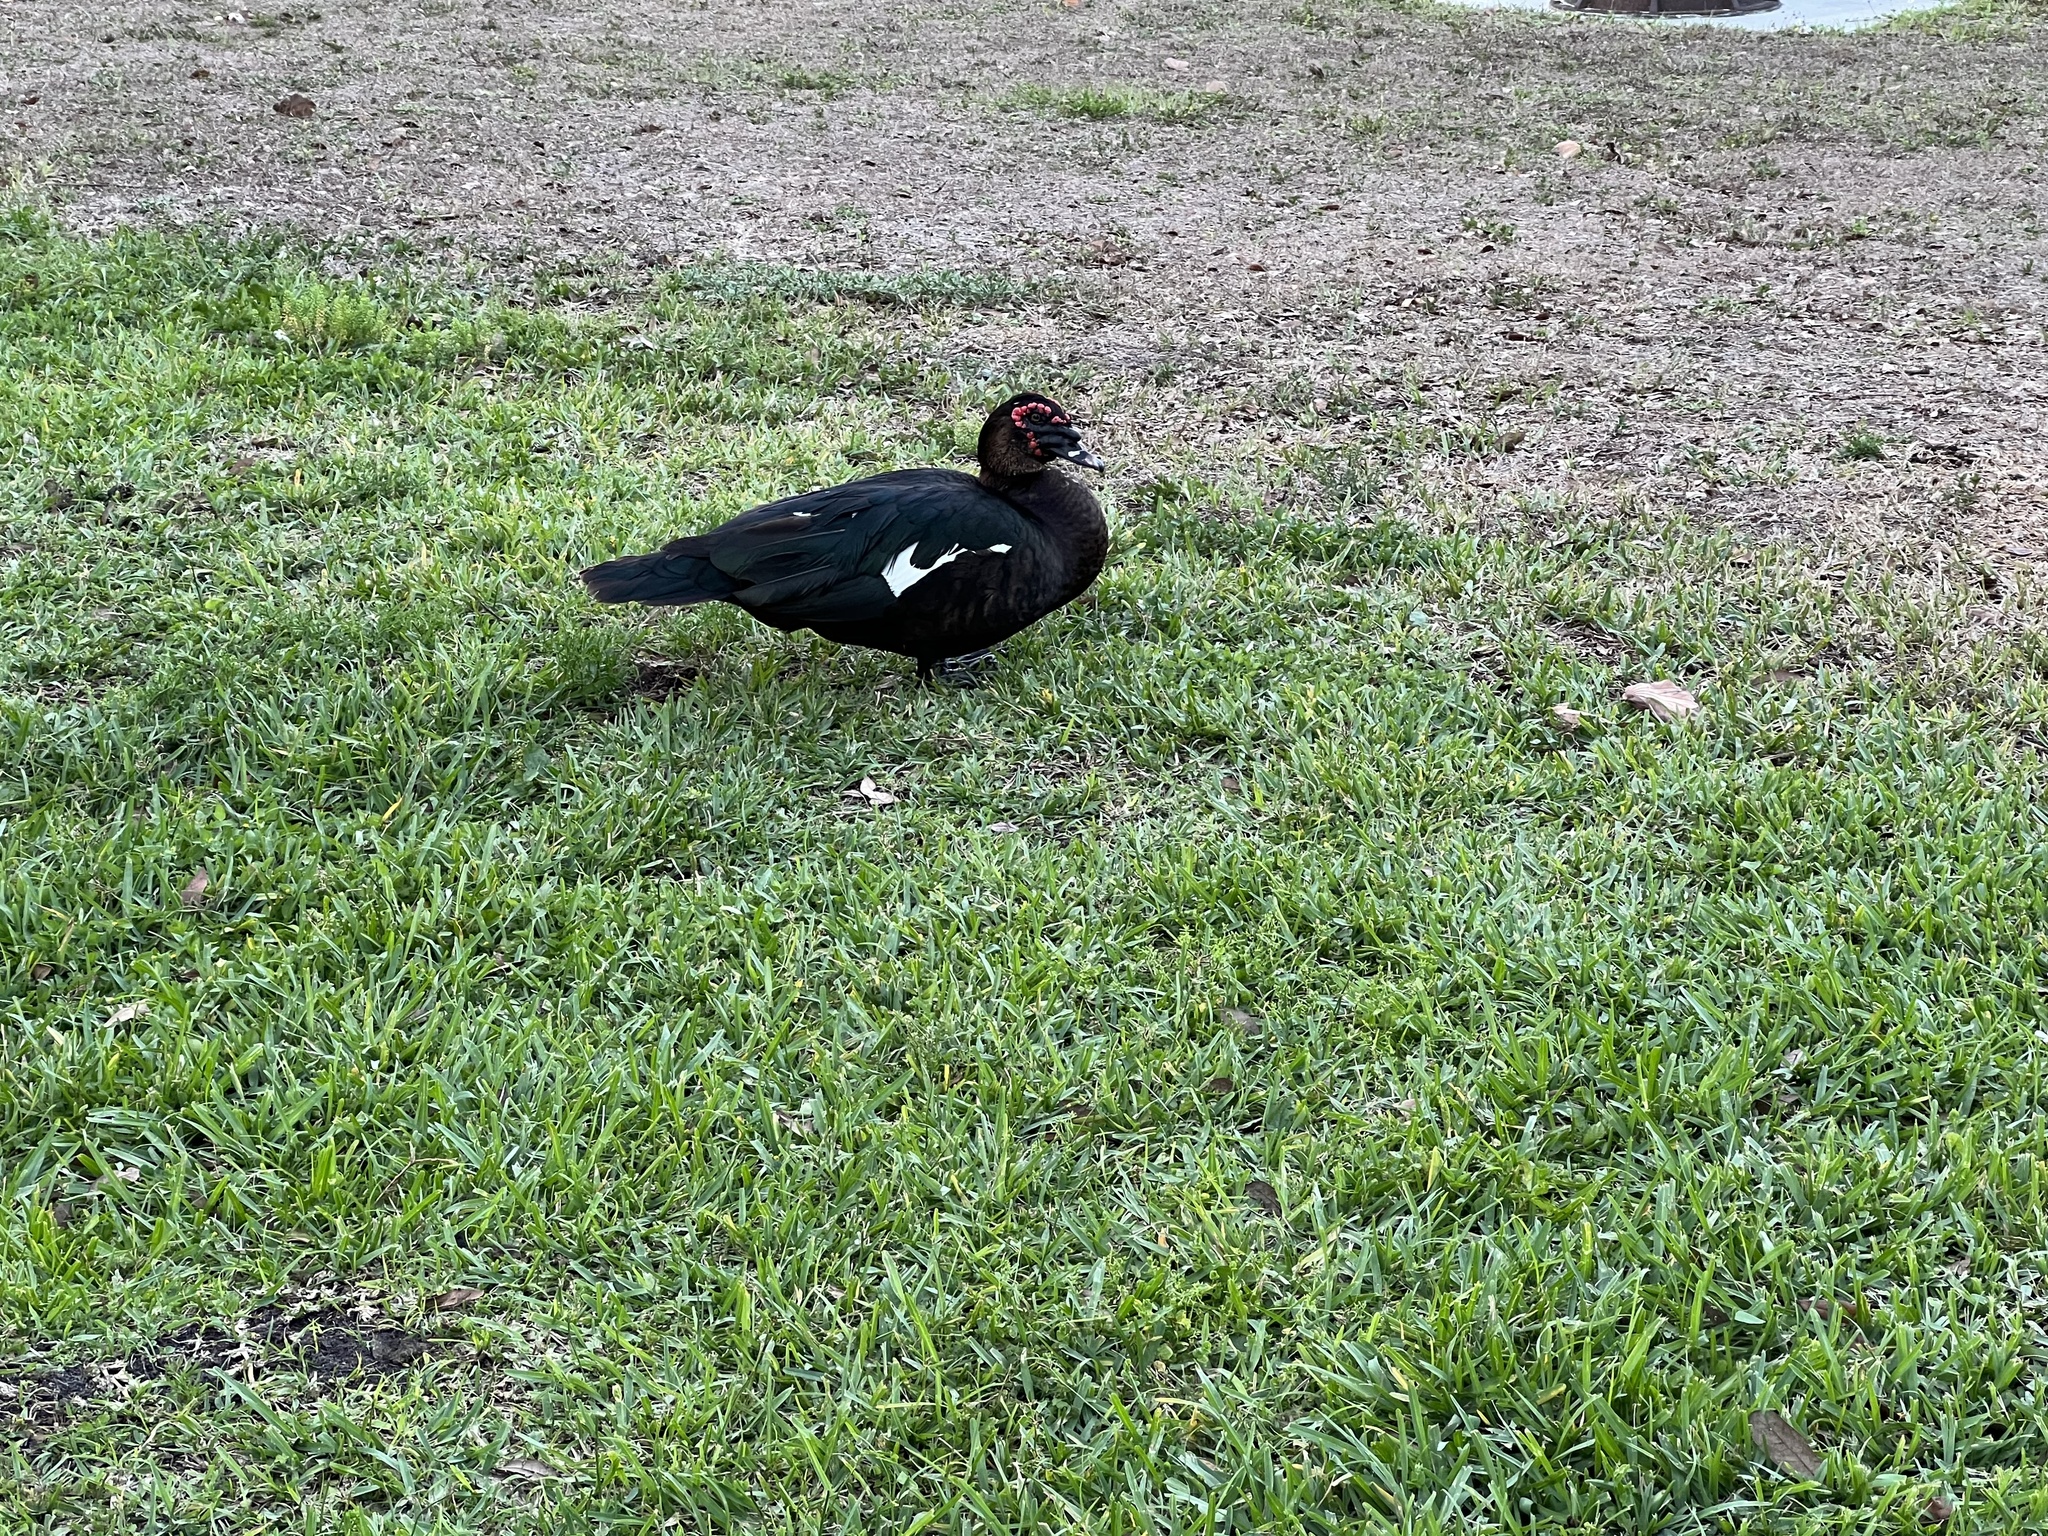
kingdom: Animalia
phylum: Chordata
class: Aves
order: Anseriformes
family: Anatidae
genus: Cairina
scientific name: Cairina moschata
